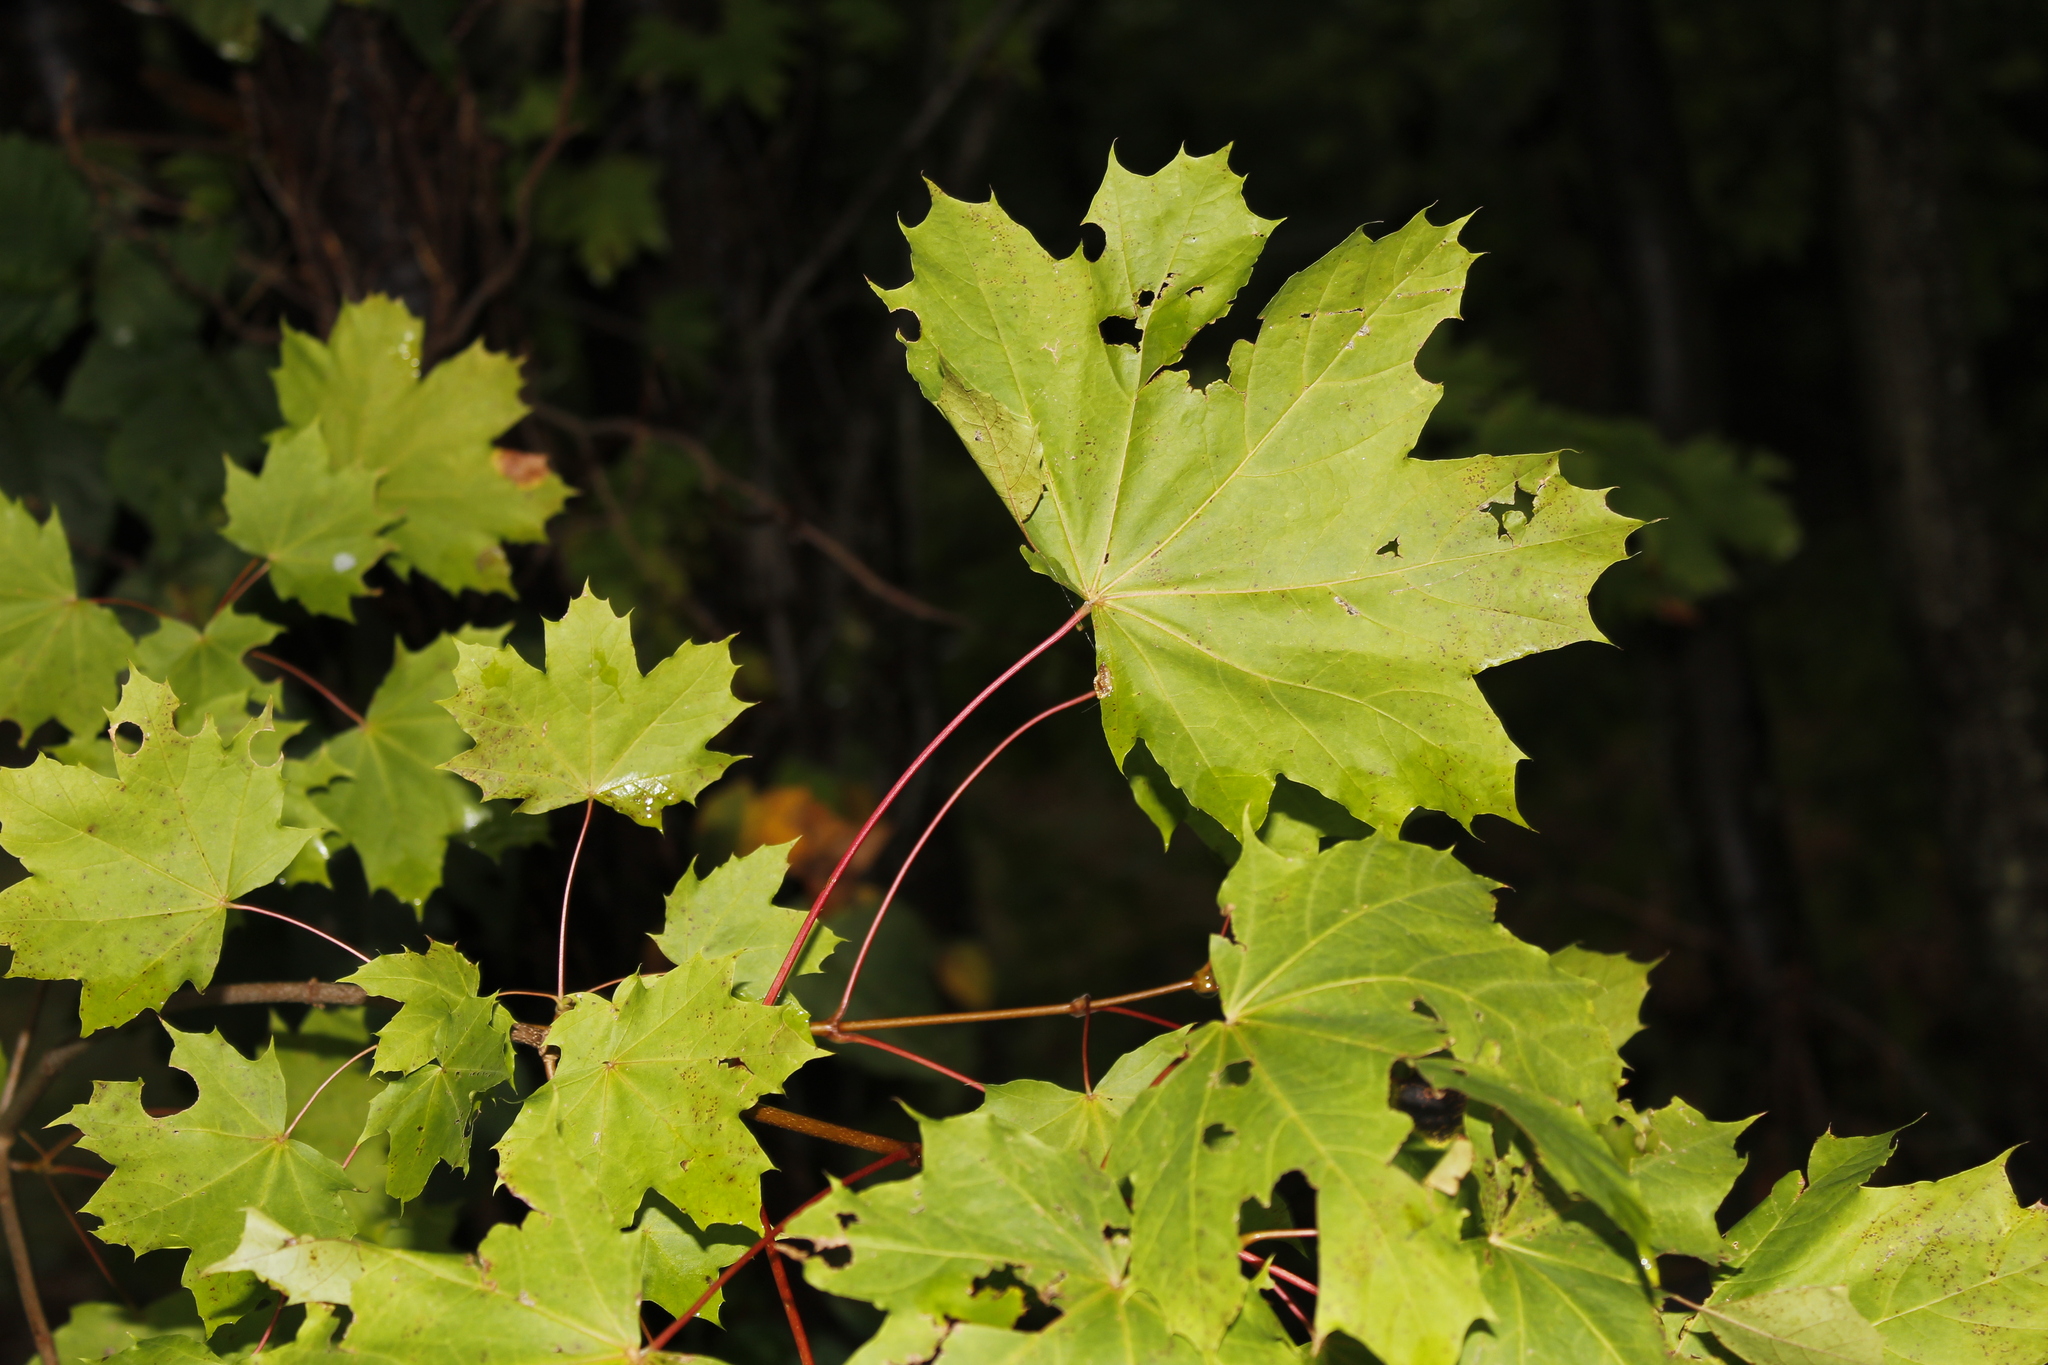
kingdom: Plantae
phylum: Tracheophyta
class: Magnoliopsida
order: Sapindales
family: Sapindaceae
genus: Acer
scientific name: Acer platanoides
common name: Norway maple
